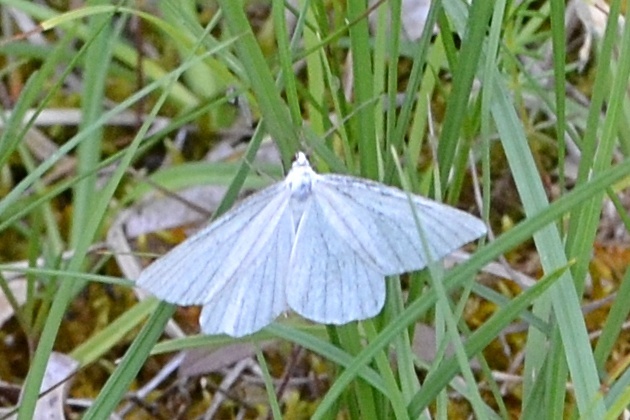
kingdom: Animalia
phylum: Arthropoda
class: Insecta
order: Lepidoptera
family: Geometridae
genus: Siona
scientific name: Siona lineata
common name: Black-veined moth
